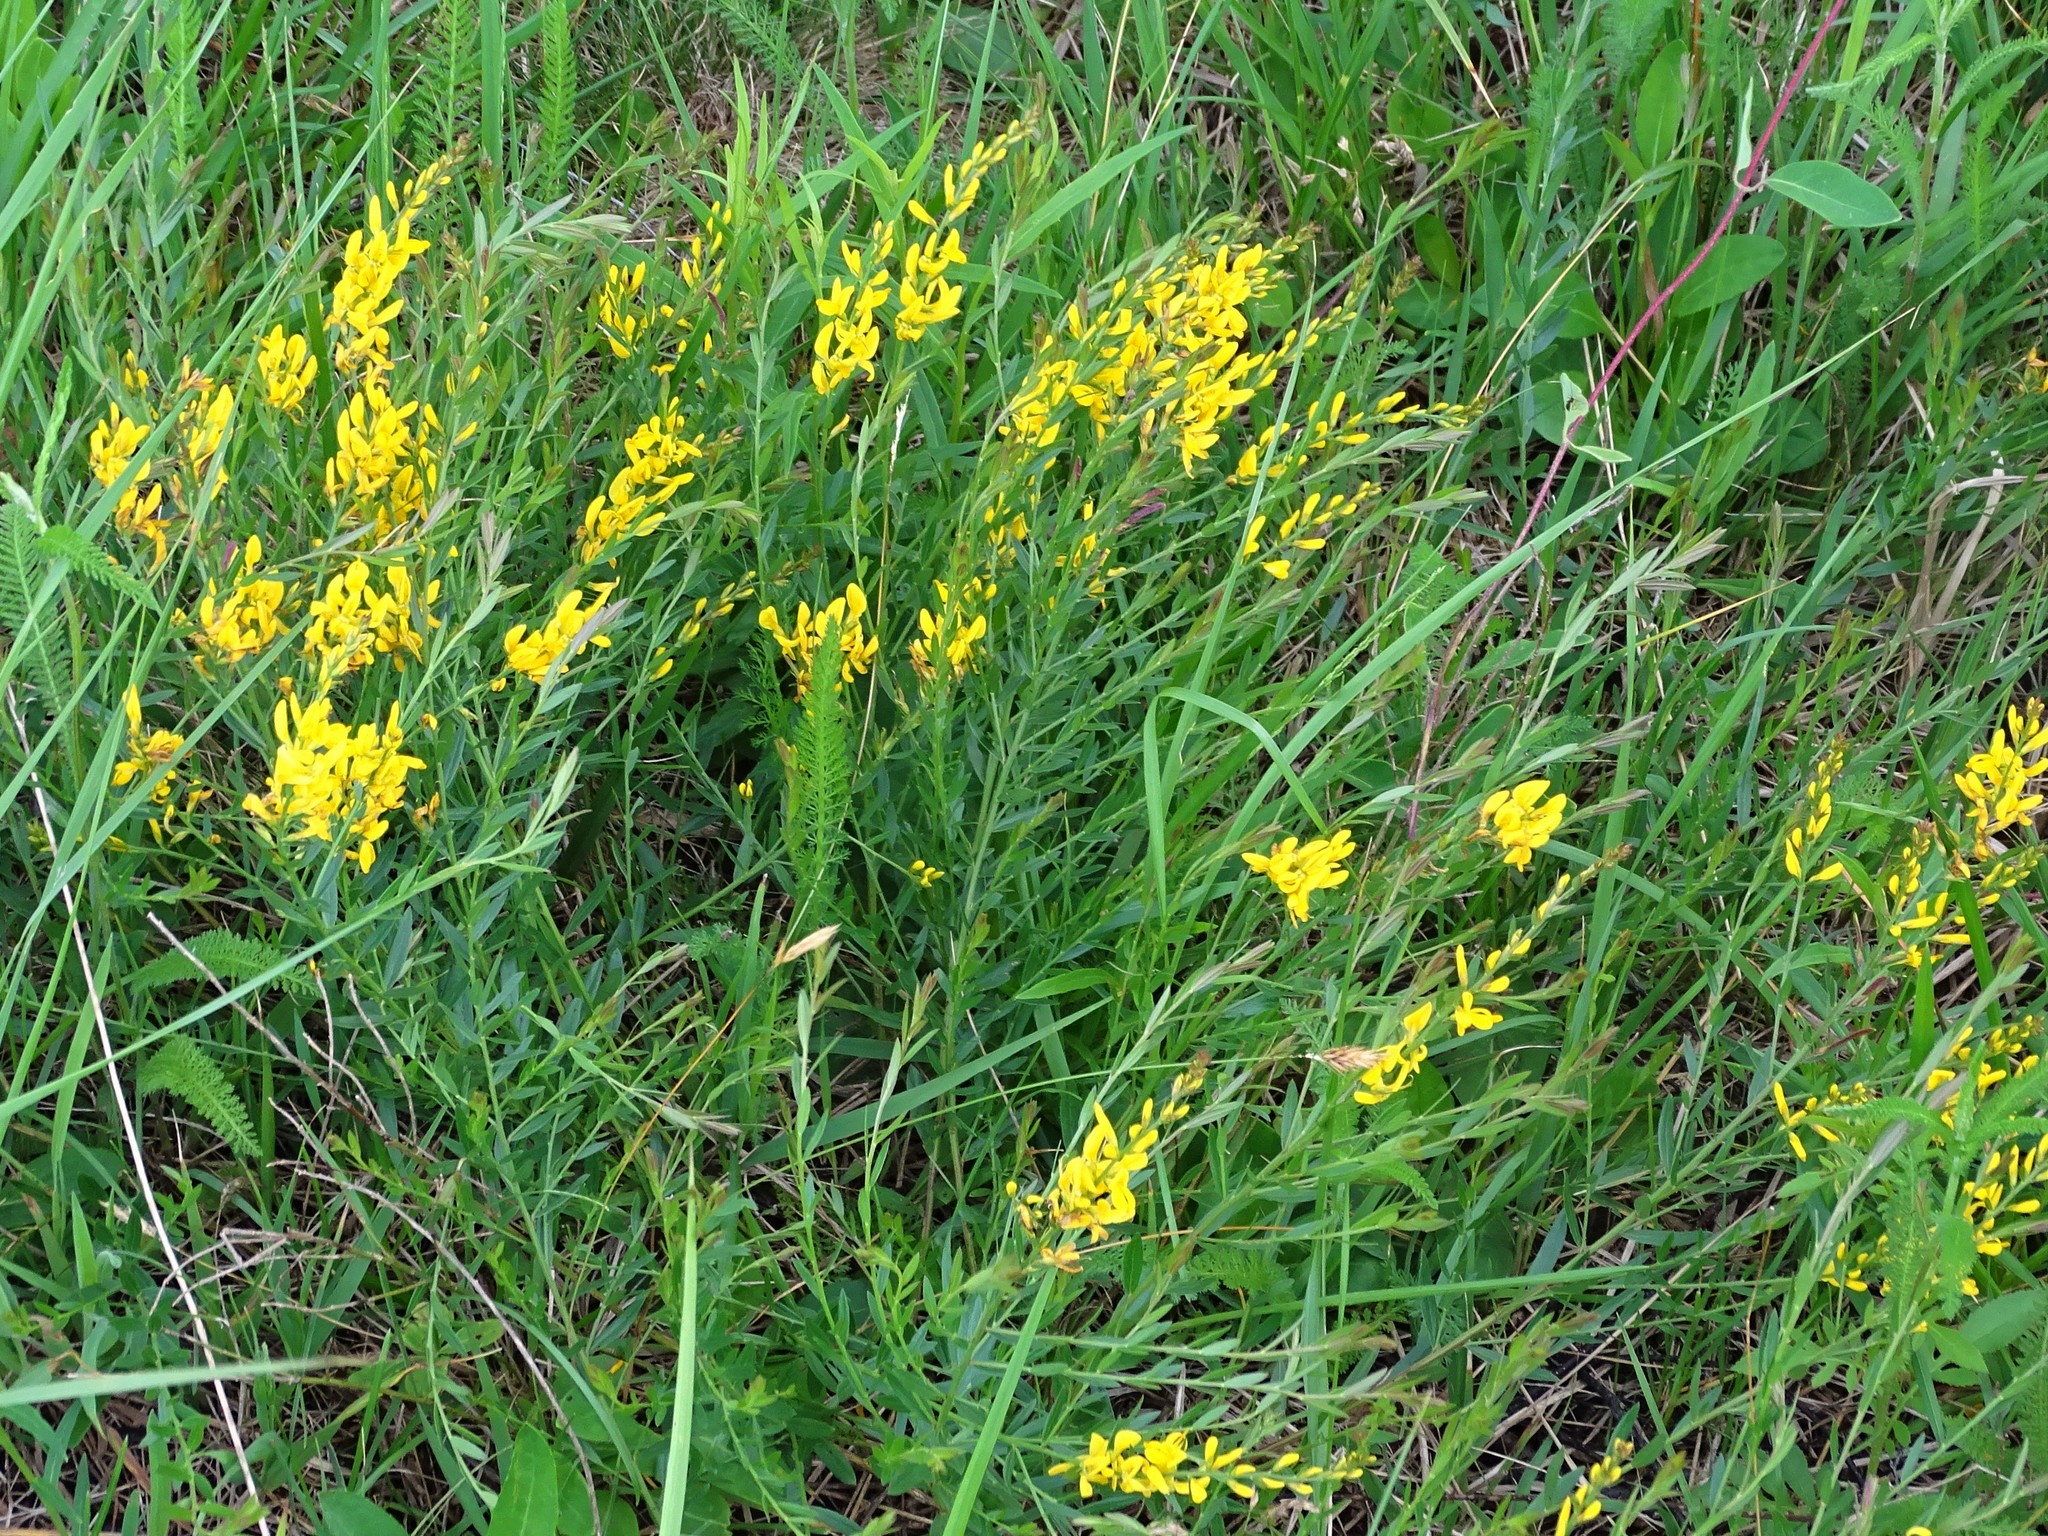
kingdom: Plantae
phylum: Tracheophyta
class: Magnoliopsida
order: Fabales
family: Fabaceae
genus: Genista
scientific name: Genista tinctoria
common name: Dyer's greenweed
